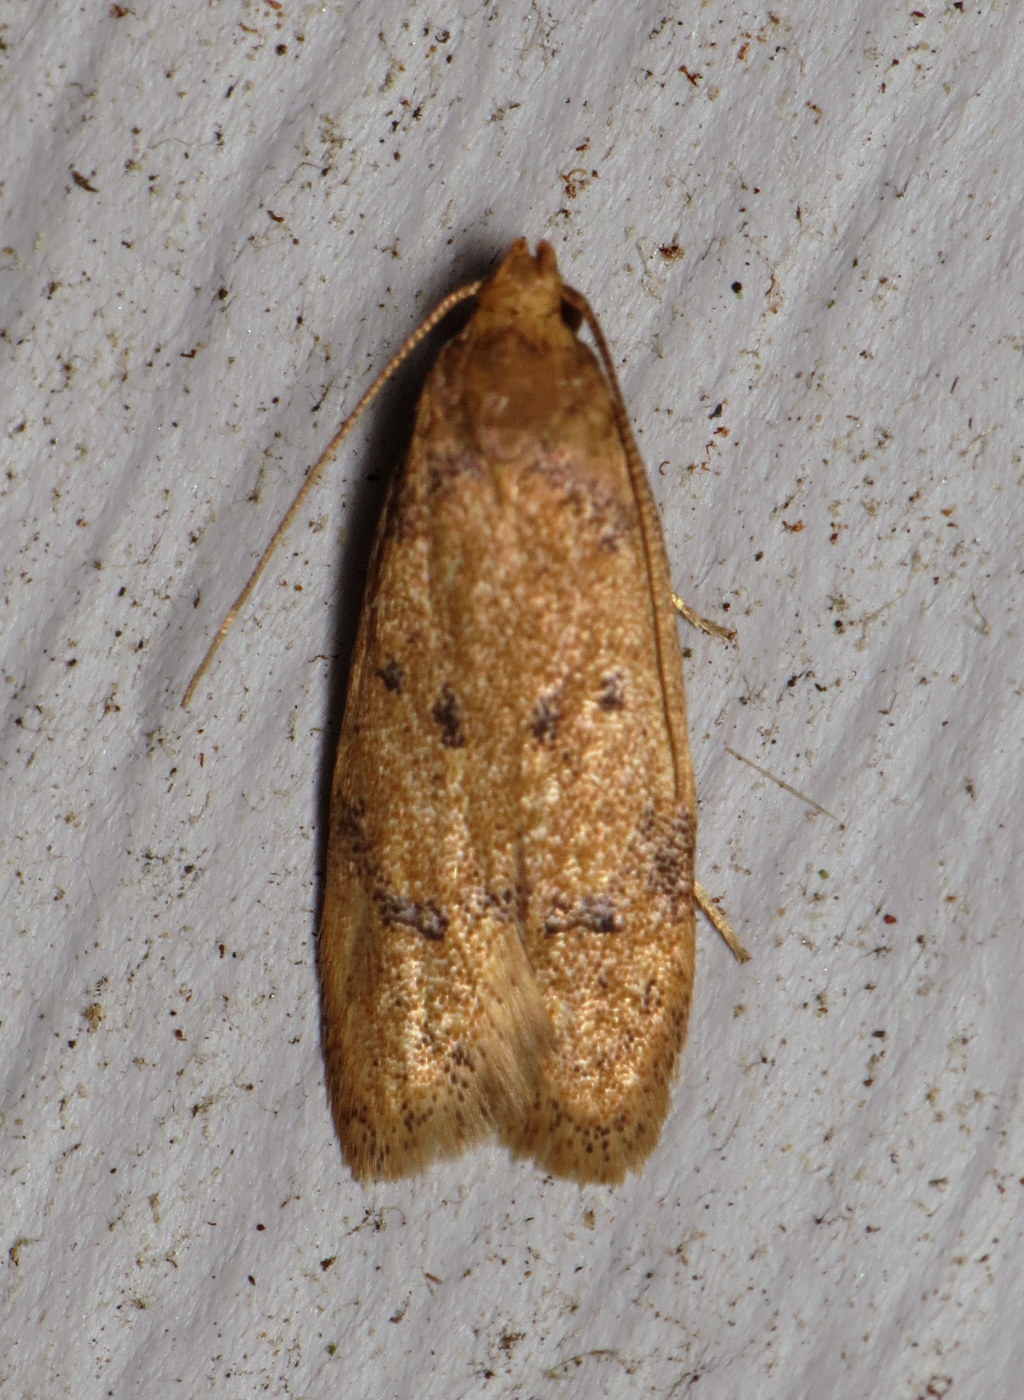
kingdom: Animalia
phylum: Arthropoda
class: Insecta
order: Lepidoptera
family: Autostichidae
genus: Gerdana
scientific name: Gerdana caritella
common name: Gerdana moth
